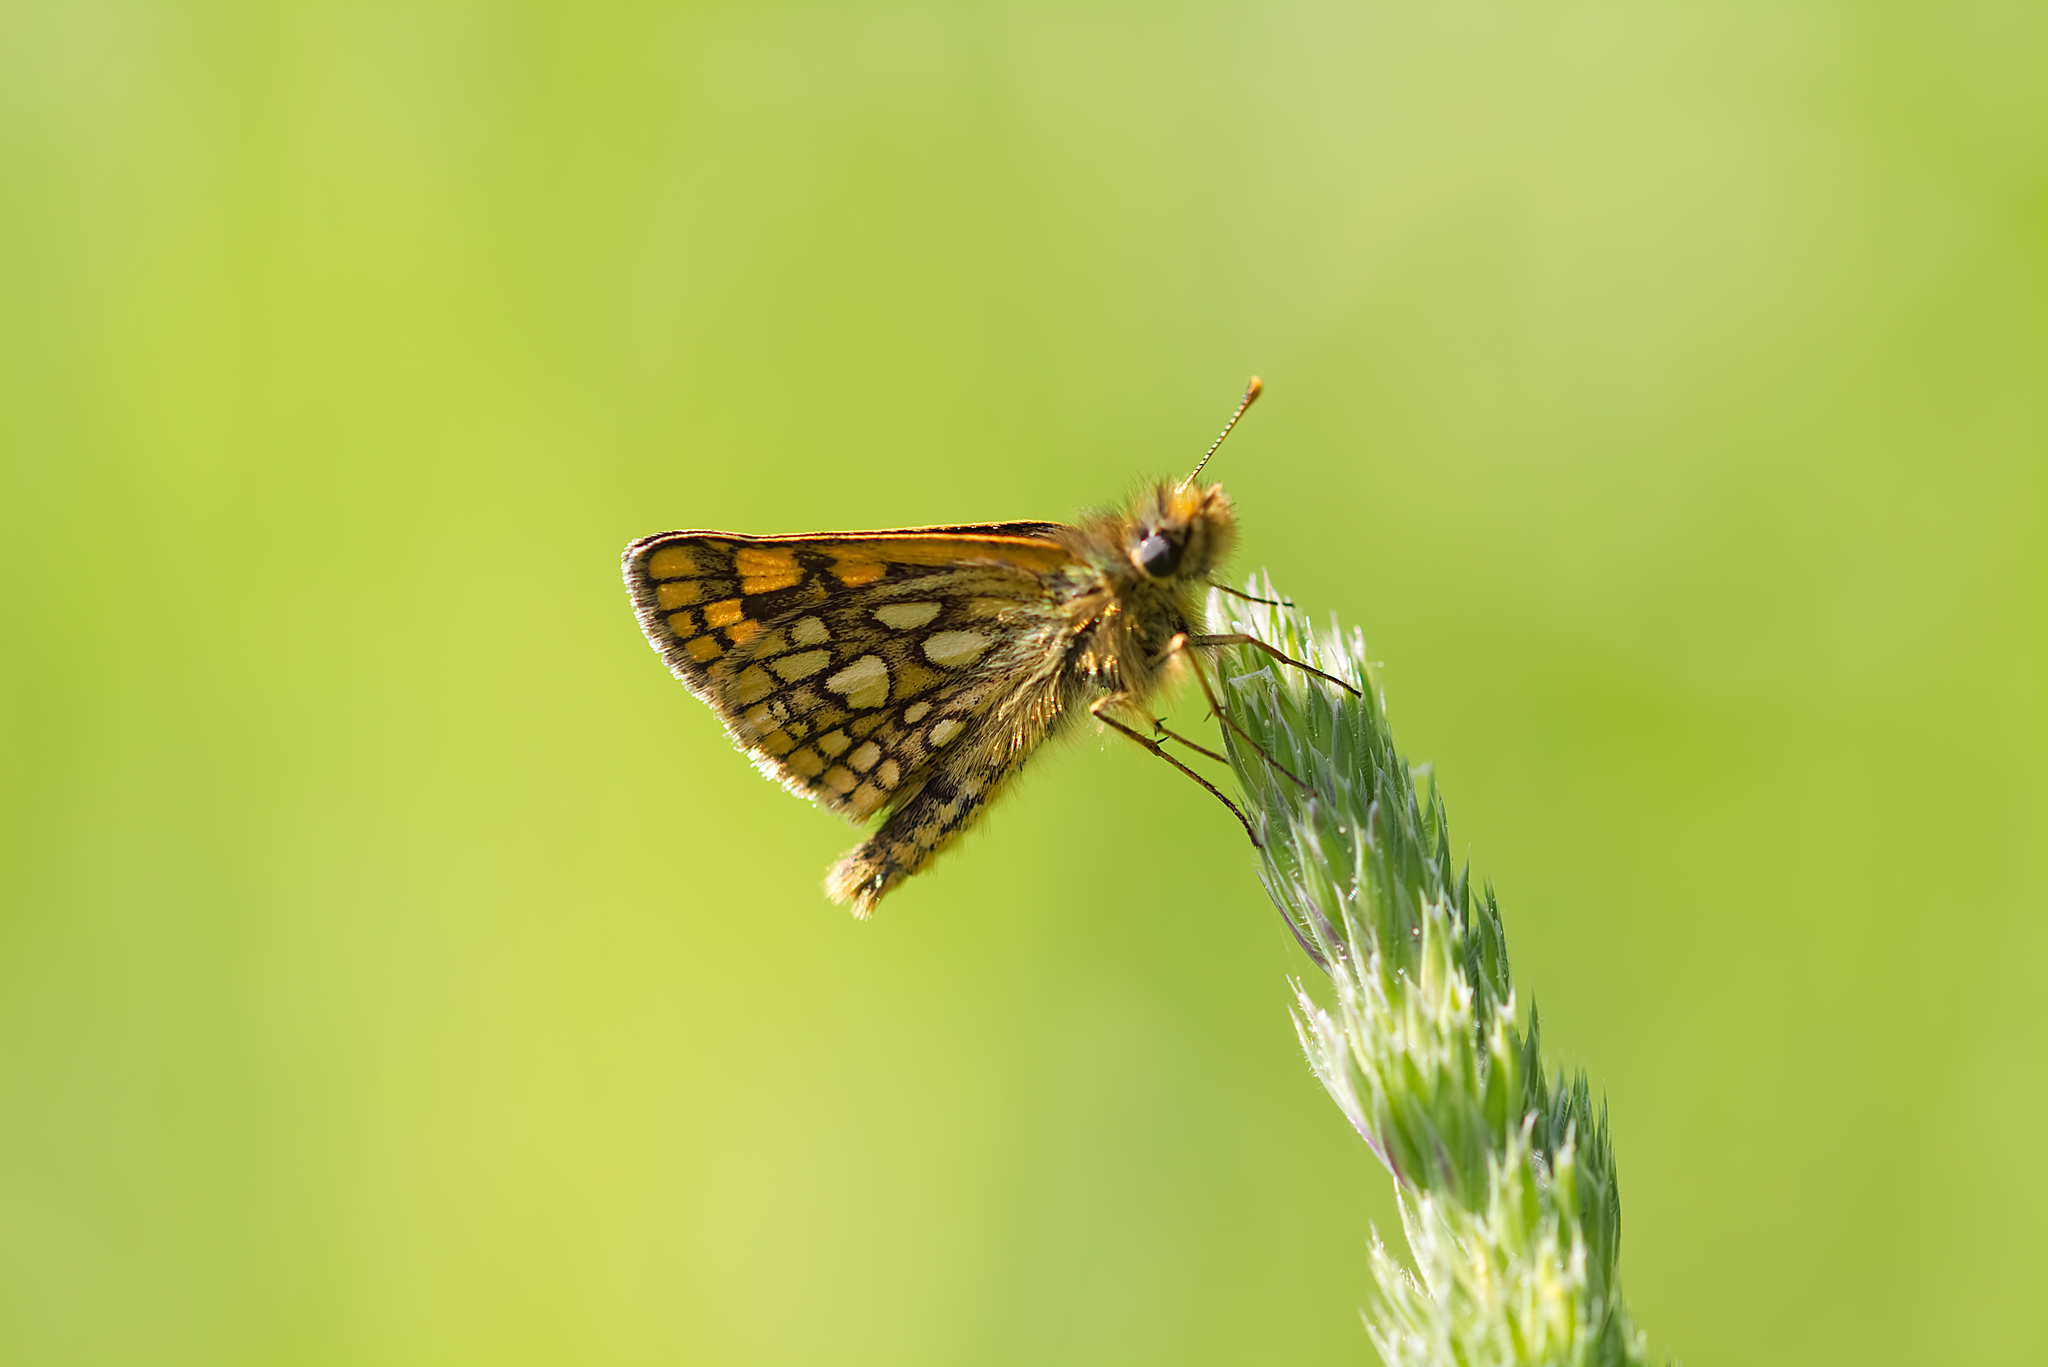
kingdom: Animalia
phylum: Arthropoda
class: Insecta
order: Lepidoptera
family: Hesperiidae
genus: Carterocephalus
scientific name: Carterocephalus palaemon
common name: Chequered skipper
